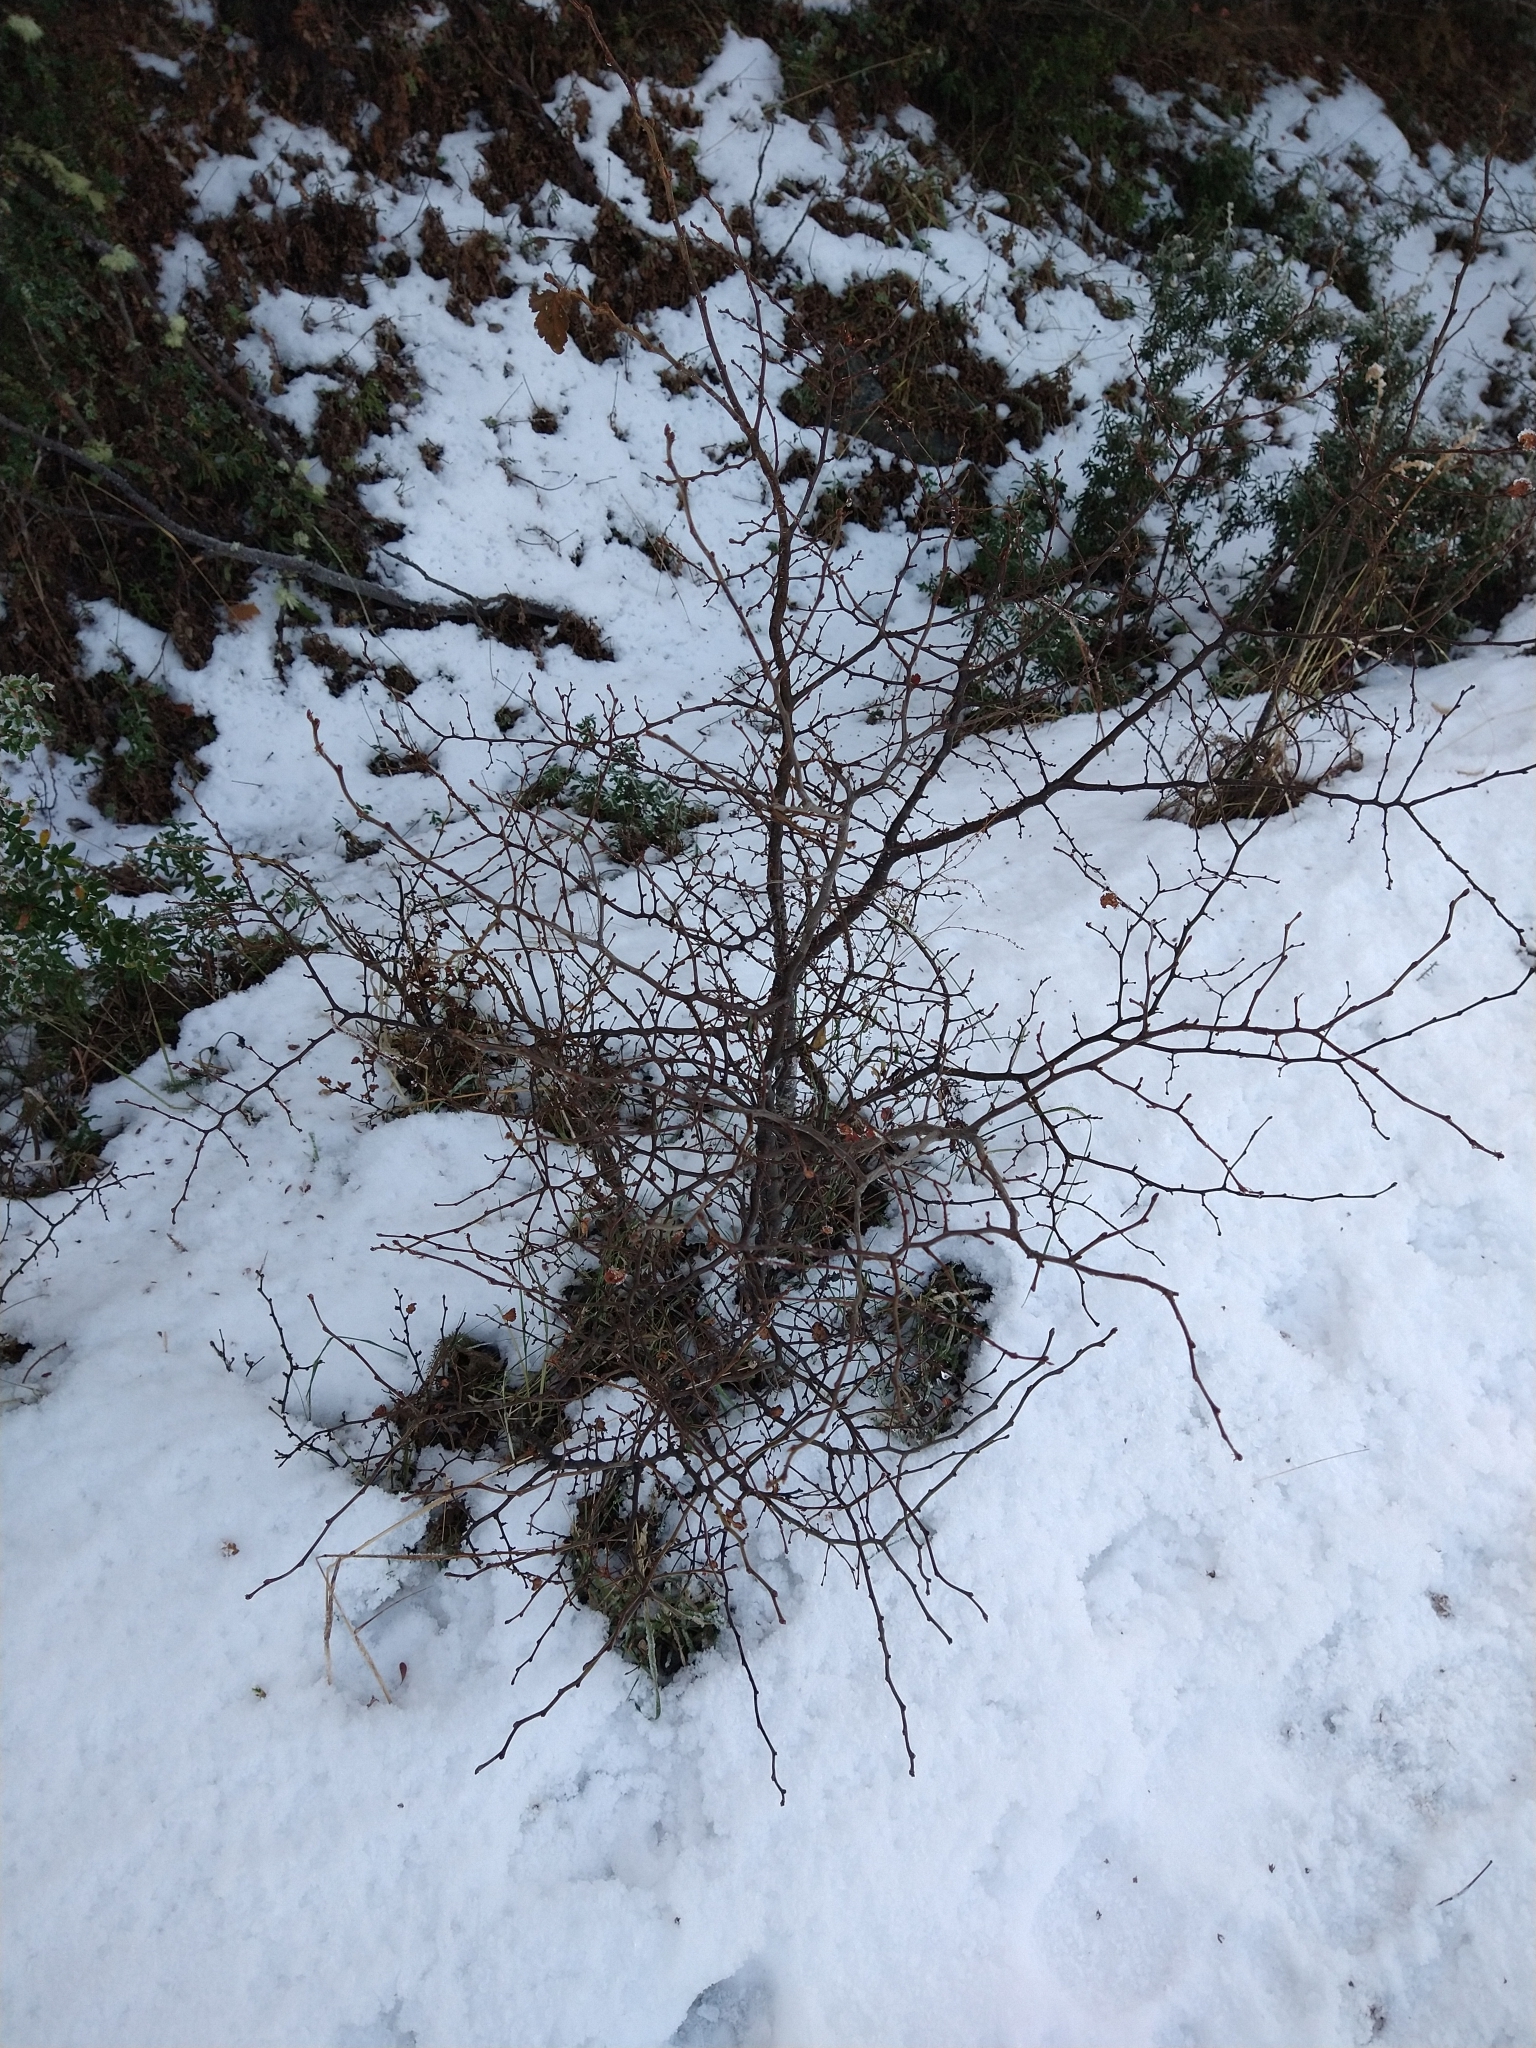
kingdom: Plantae
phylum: Tracheophyta
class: Magnoliopsida
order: Fagales
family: Nothofagaceae
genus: Nothofagus
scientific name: Nothofagus antarctica
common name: Antarctic beech
